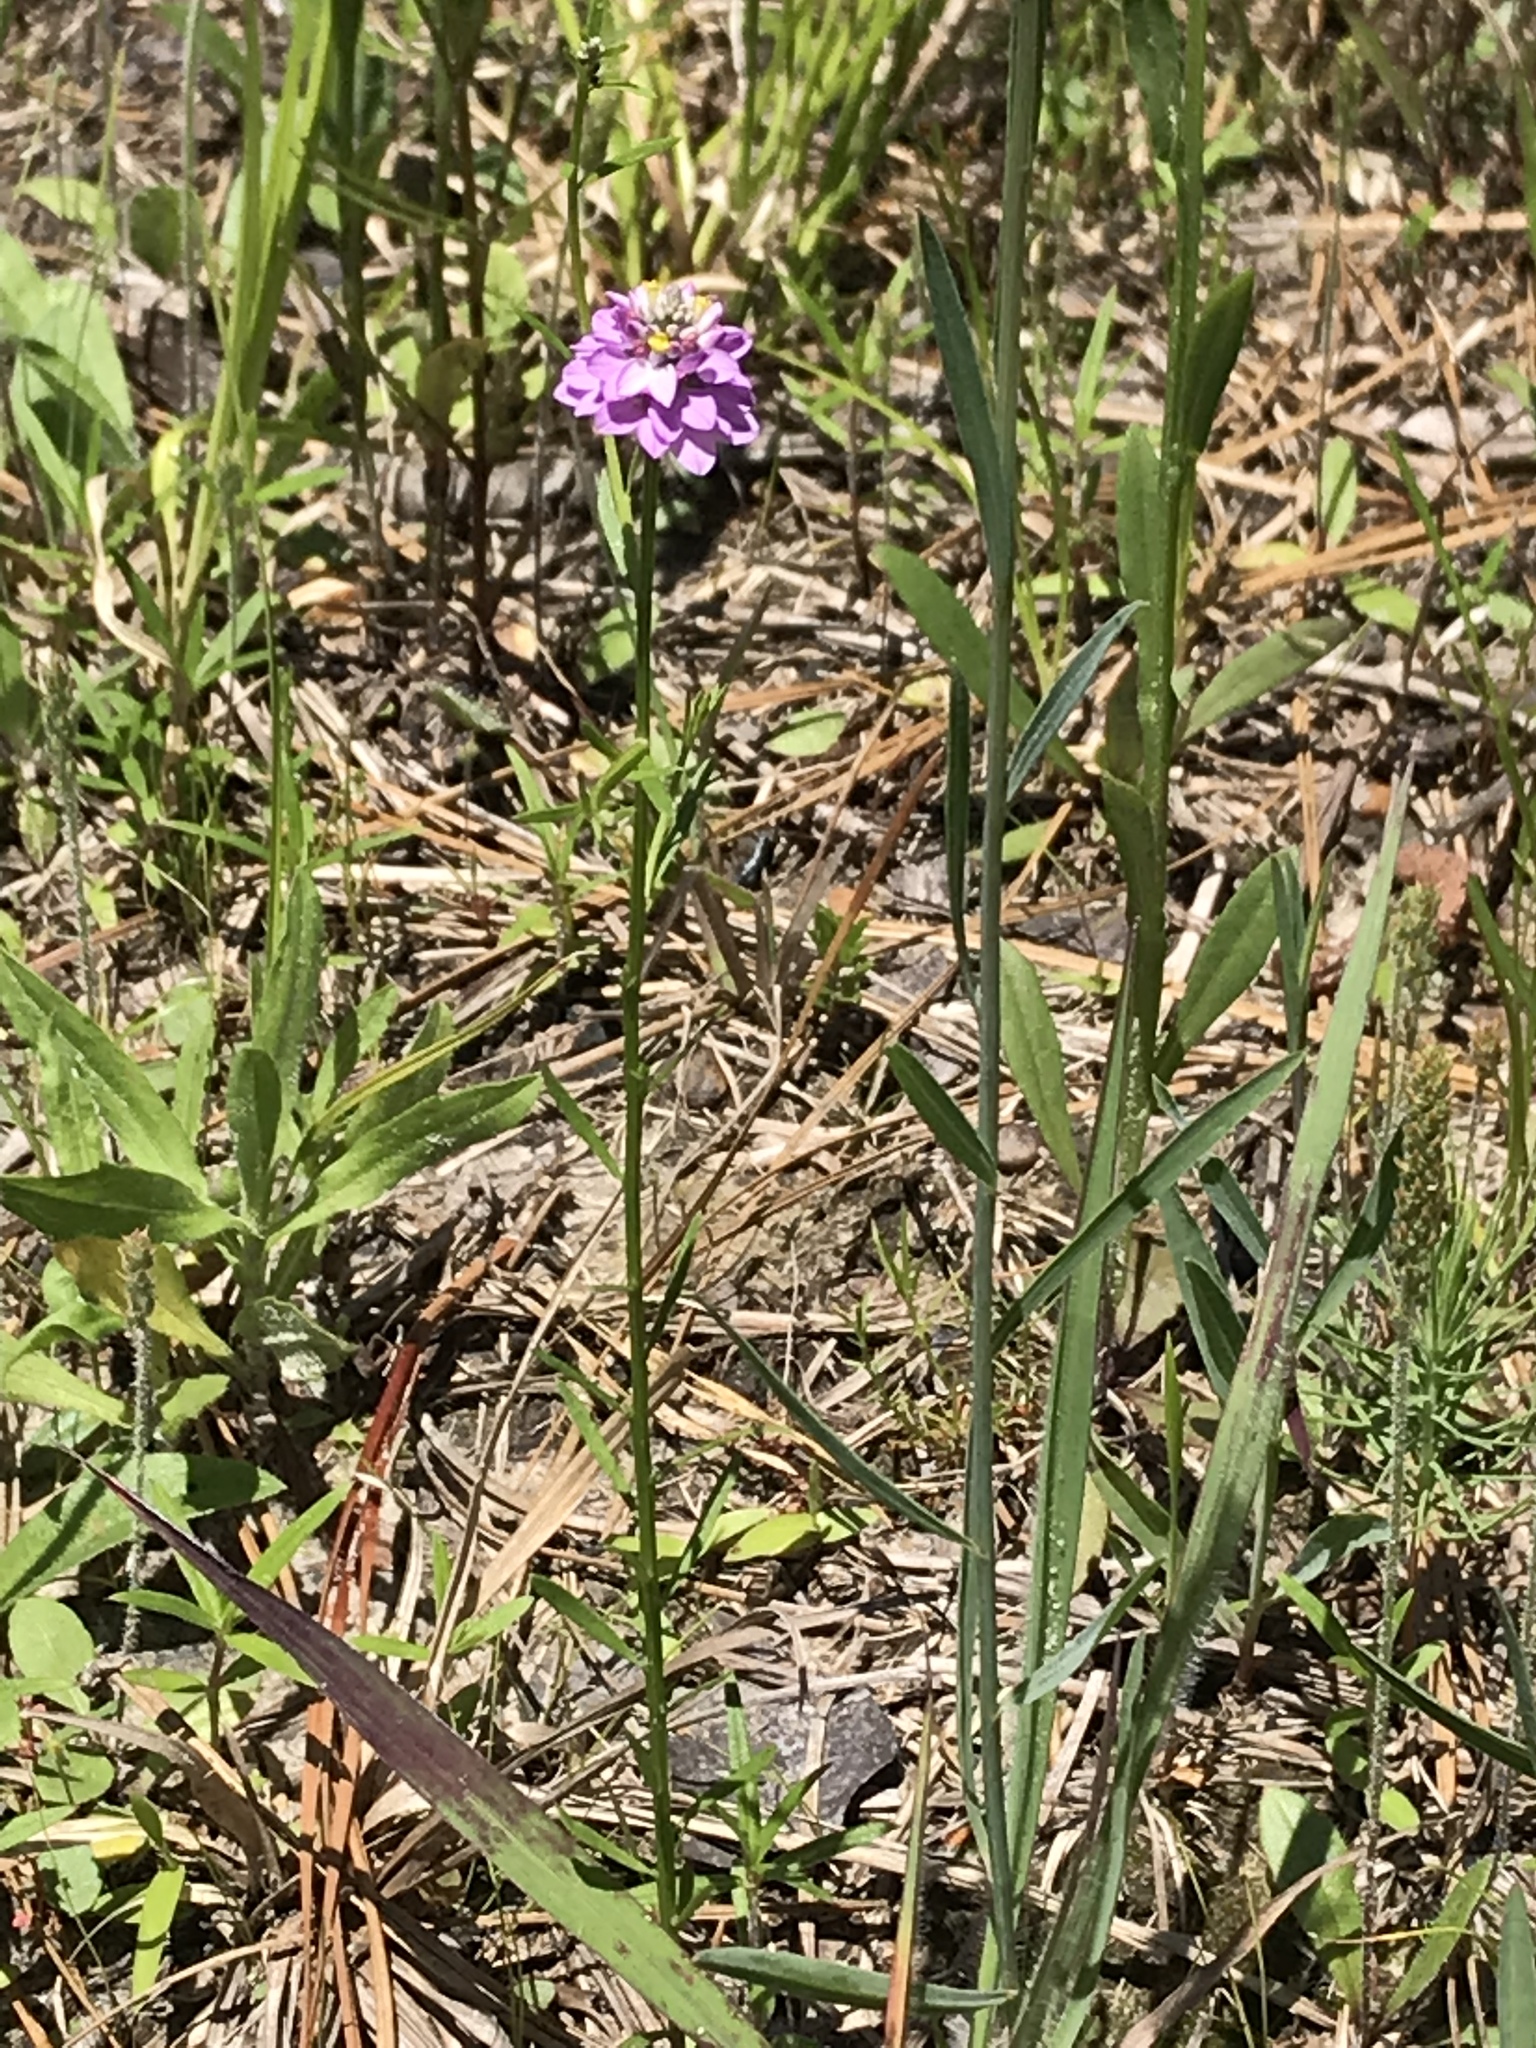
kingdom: Plantae
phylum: Tracheophyta
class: Magnoliopsida
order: Fabales
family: Polygalaceae
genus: Polygala
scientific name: Polygala mariana
